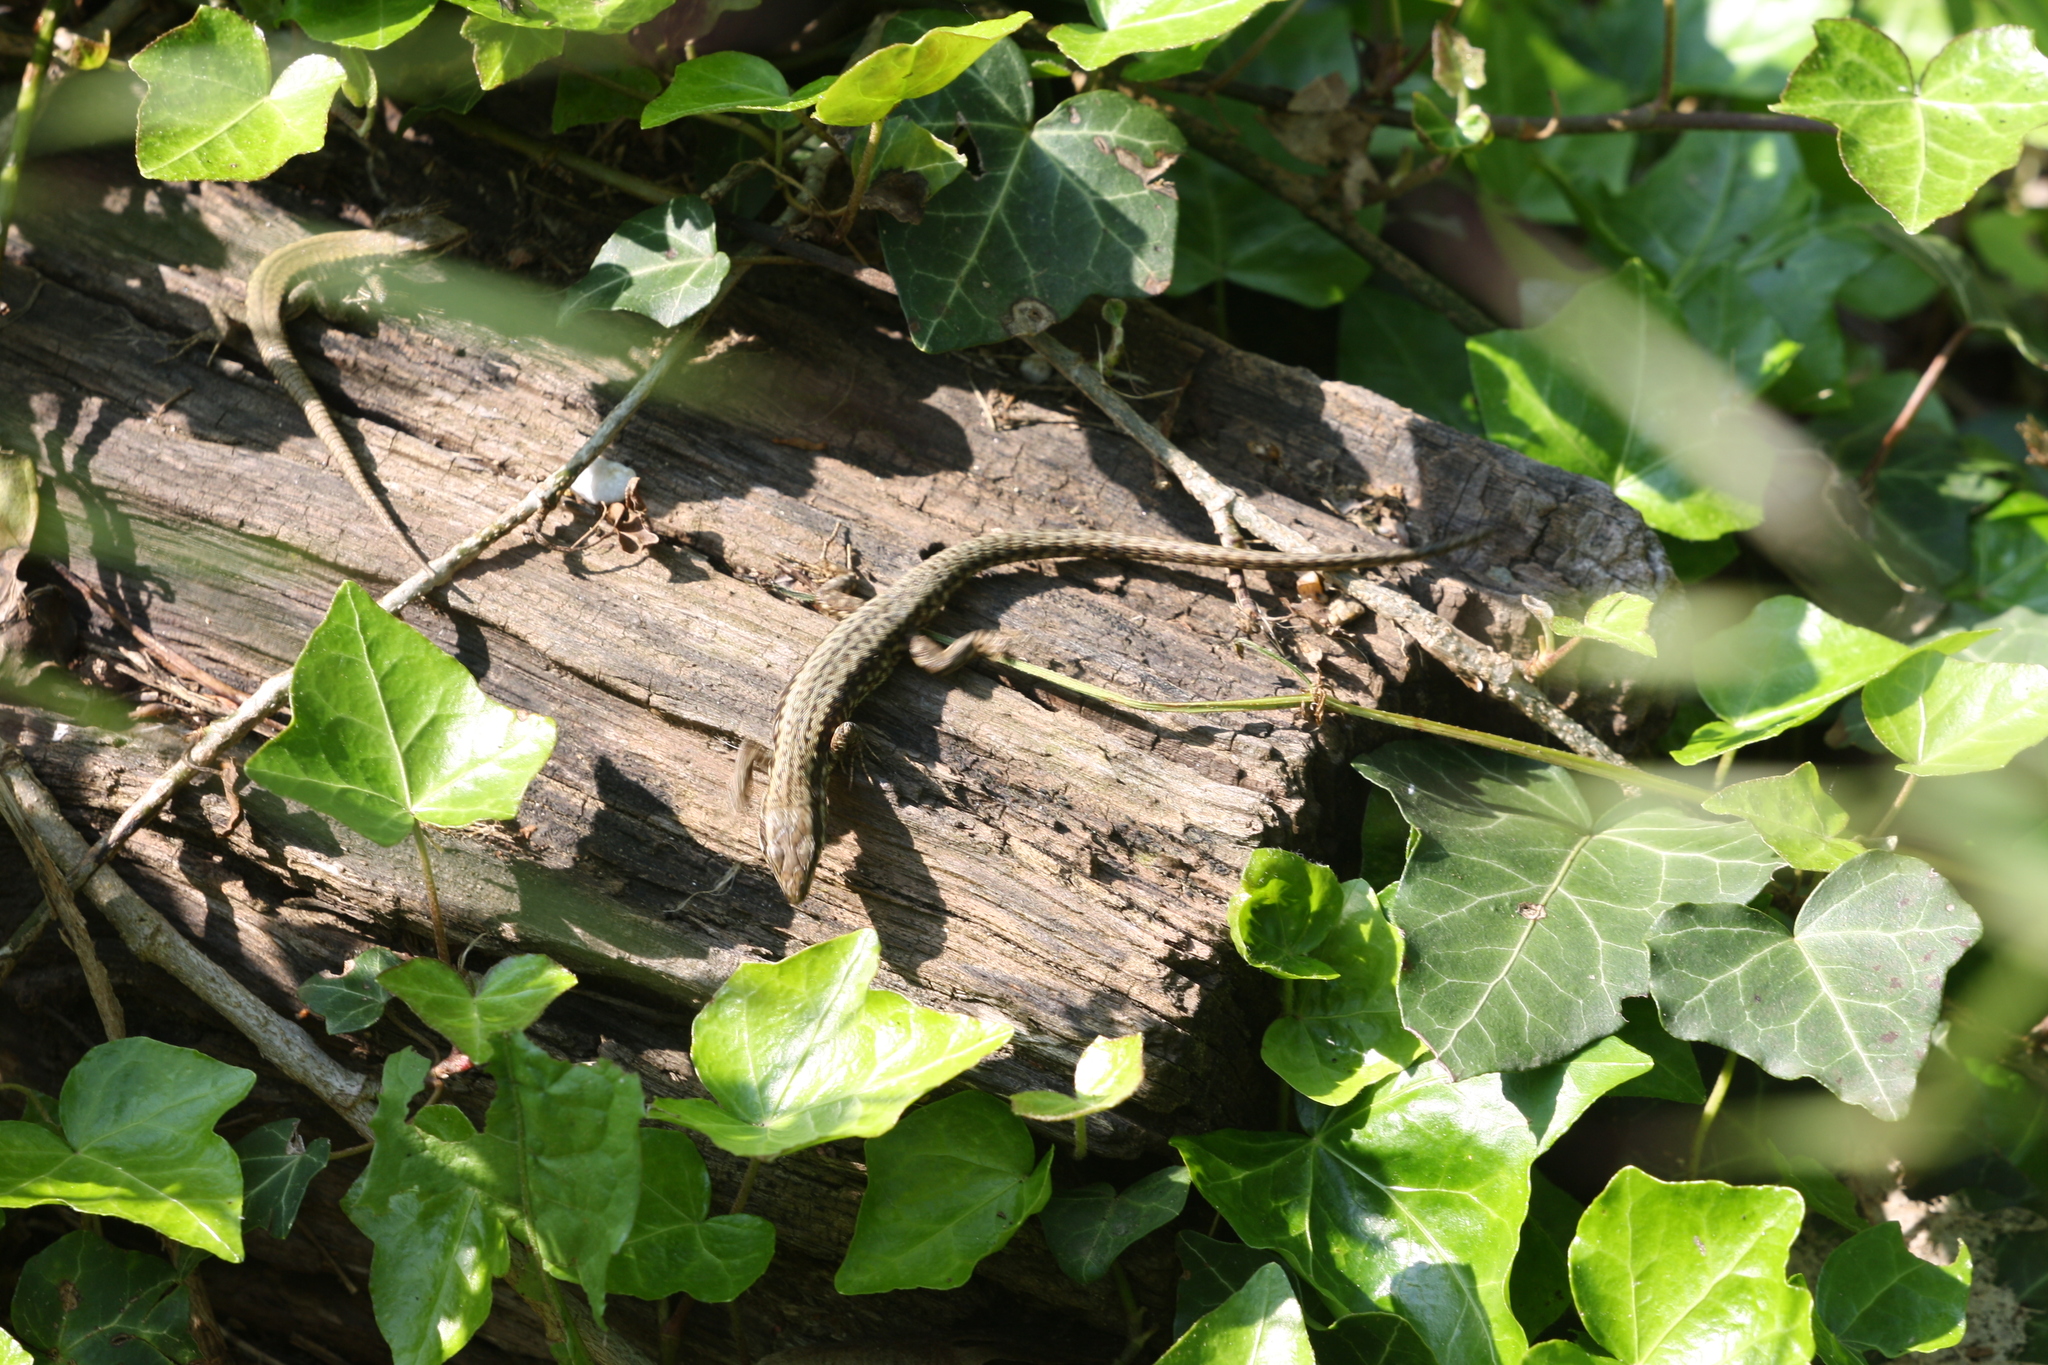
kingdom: Animalia
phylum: Chordata
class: Squamata
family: Lacertidae
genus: Podarcis
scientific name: Podarcis muralis
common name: Common wall lizard
